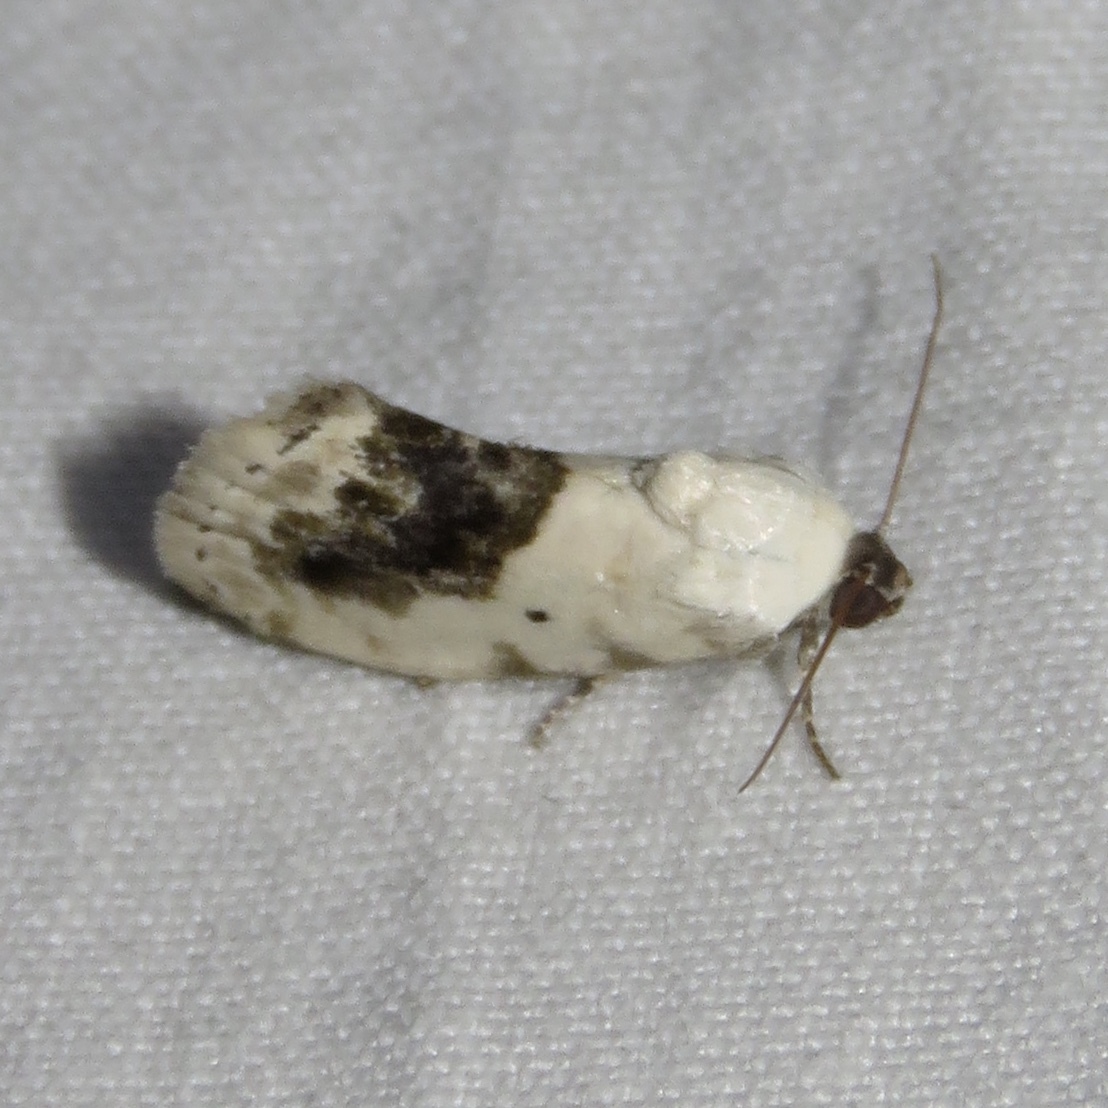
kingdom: Animalia
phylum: Arthropoda
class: Insecta
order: Lepidoptera
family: Noctuidae
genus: Acontia
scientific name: Acontia erastrioides
